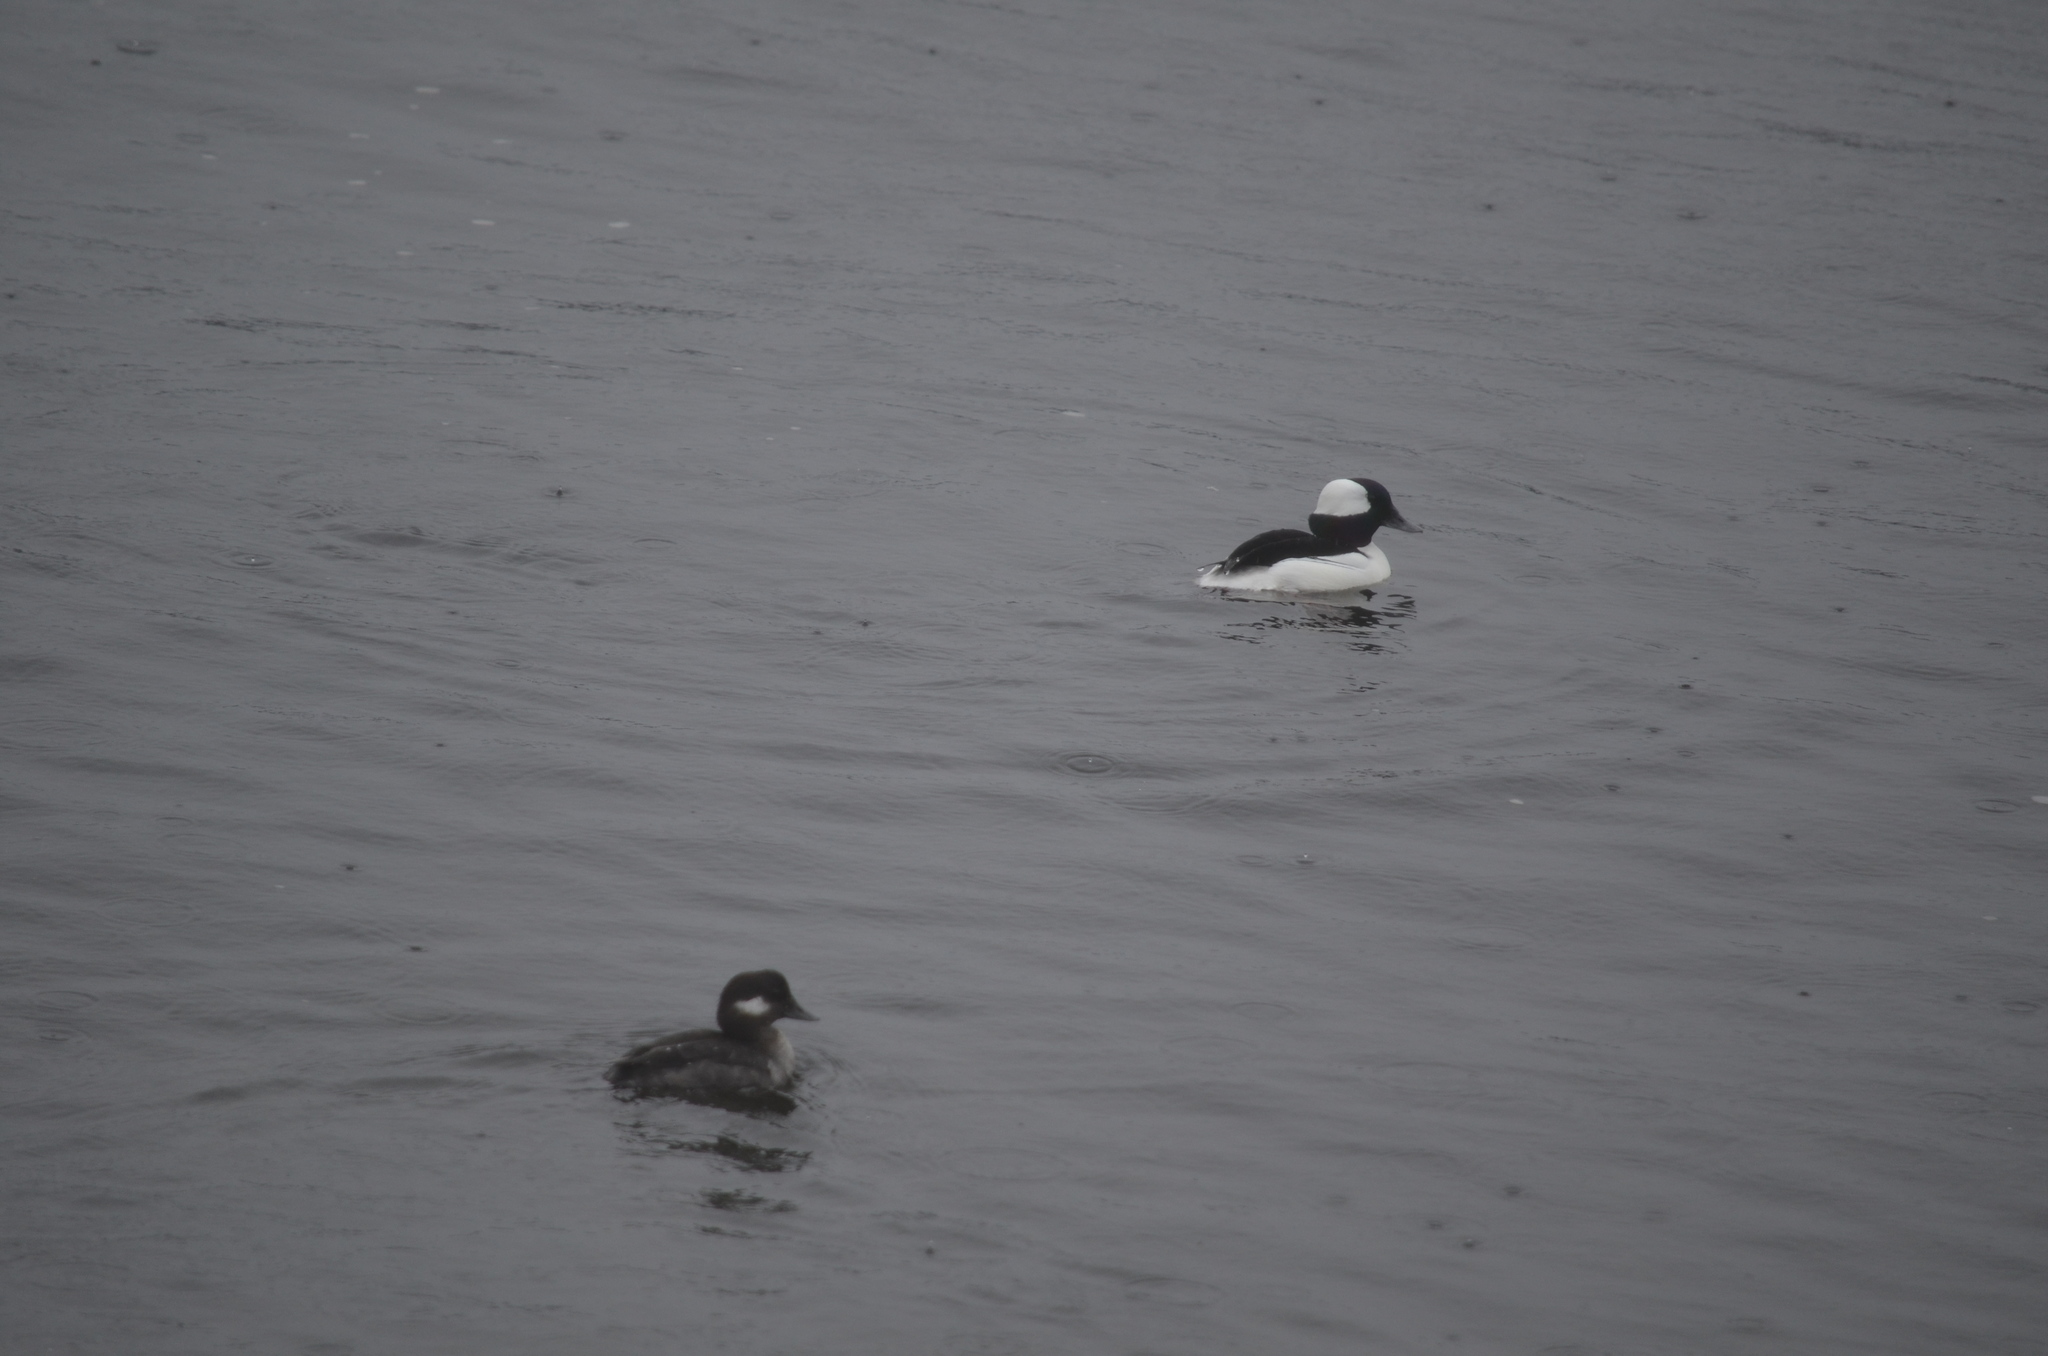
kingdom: Animalia
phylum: Chordata
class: Aves
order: Anseriformes
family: Anatidae
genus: Bucephala
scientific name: Bucephala albeola
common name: Bufflehead
